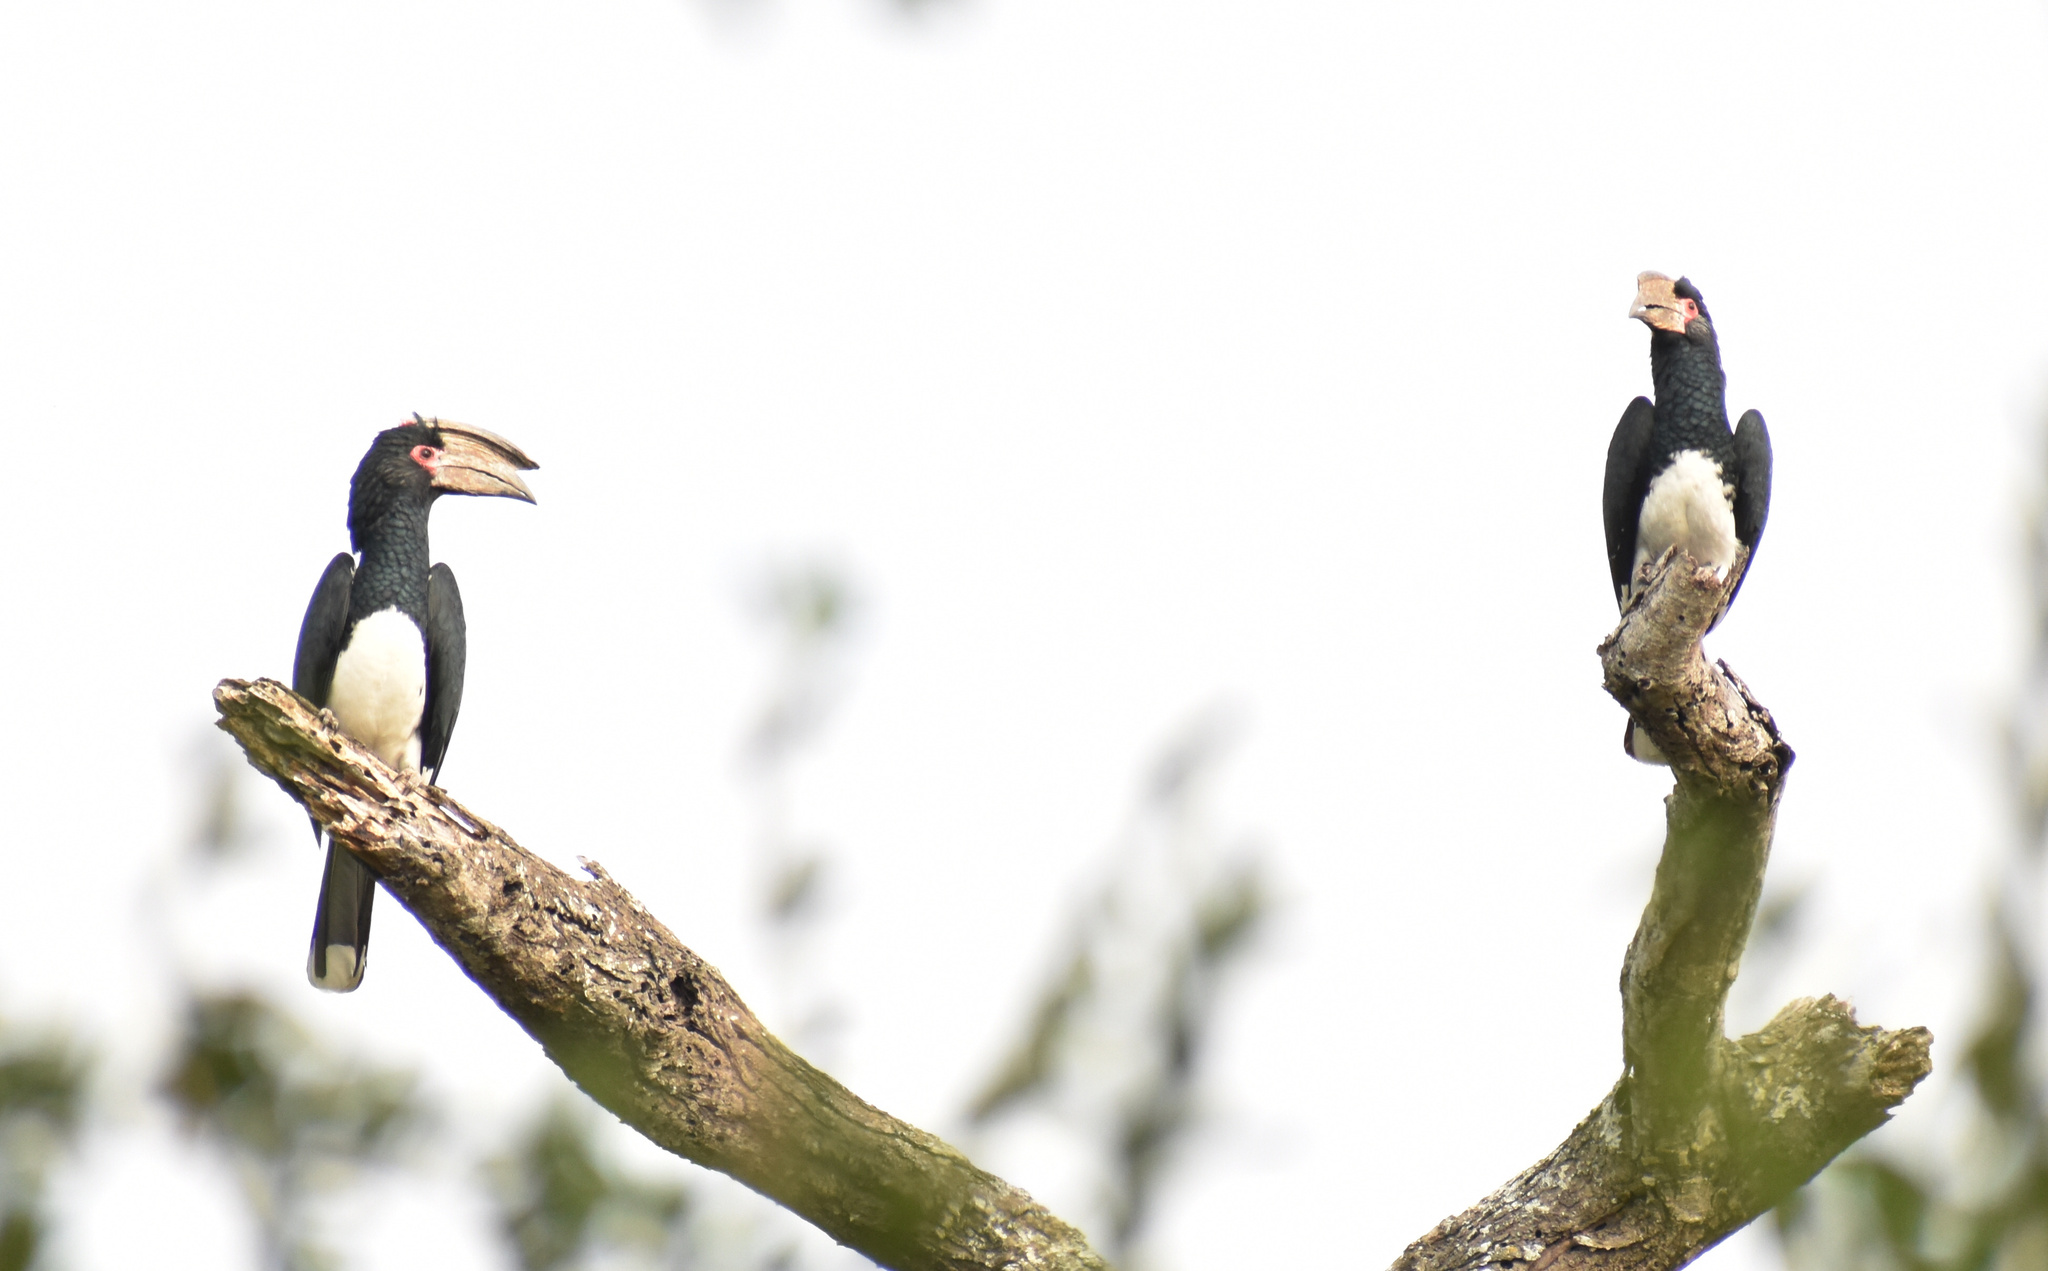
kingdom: Animalia
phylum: Chordata
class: Aves
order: Bucerotiformes
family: Bucerotidae
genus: Bycanistes
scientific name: Bycanistes bucinator
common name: Trumpeter hornbill
